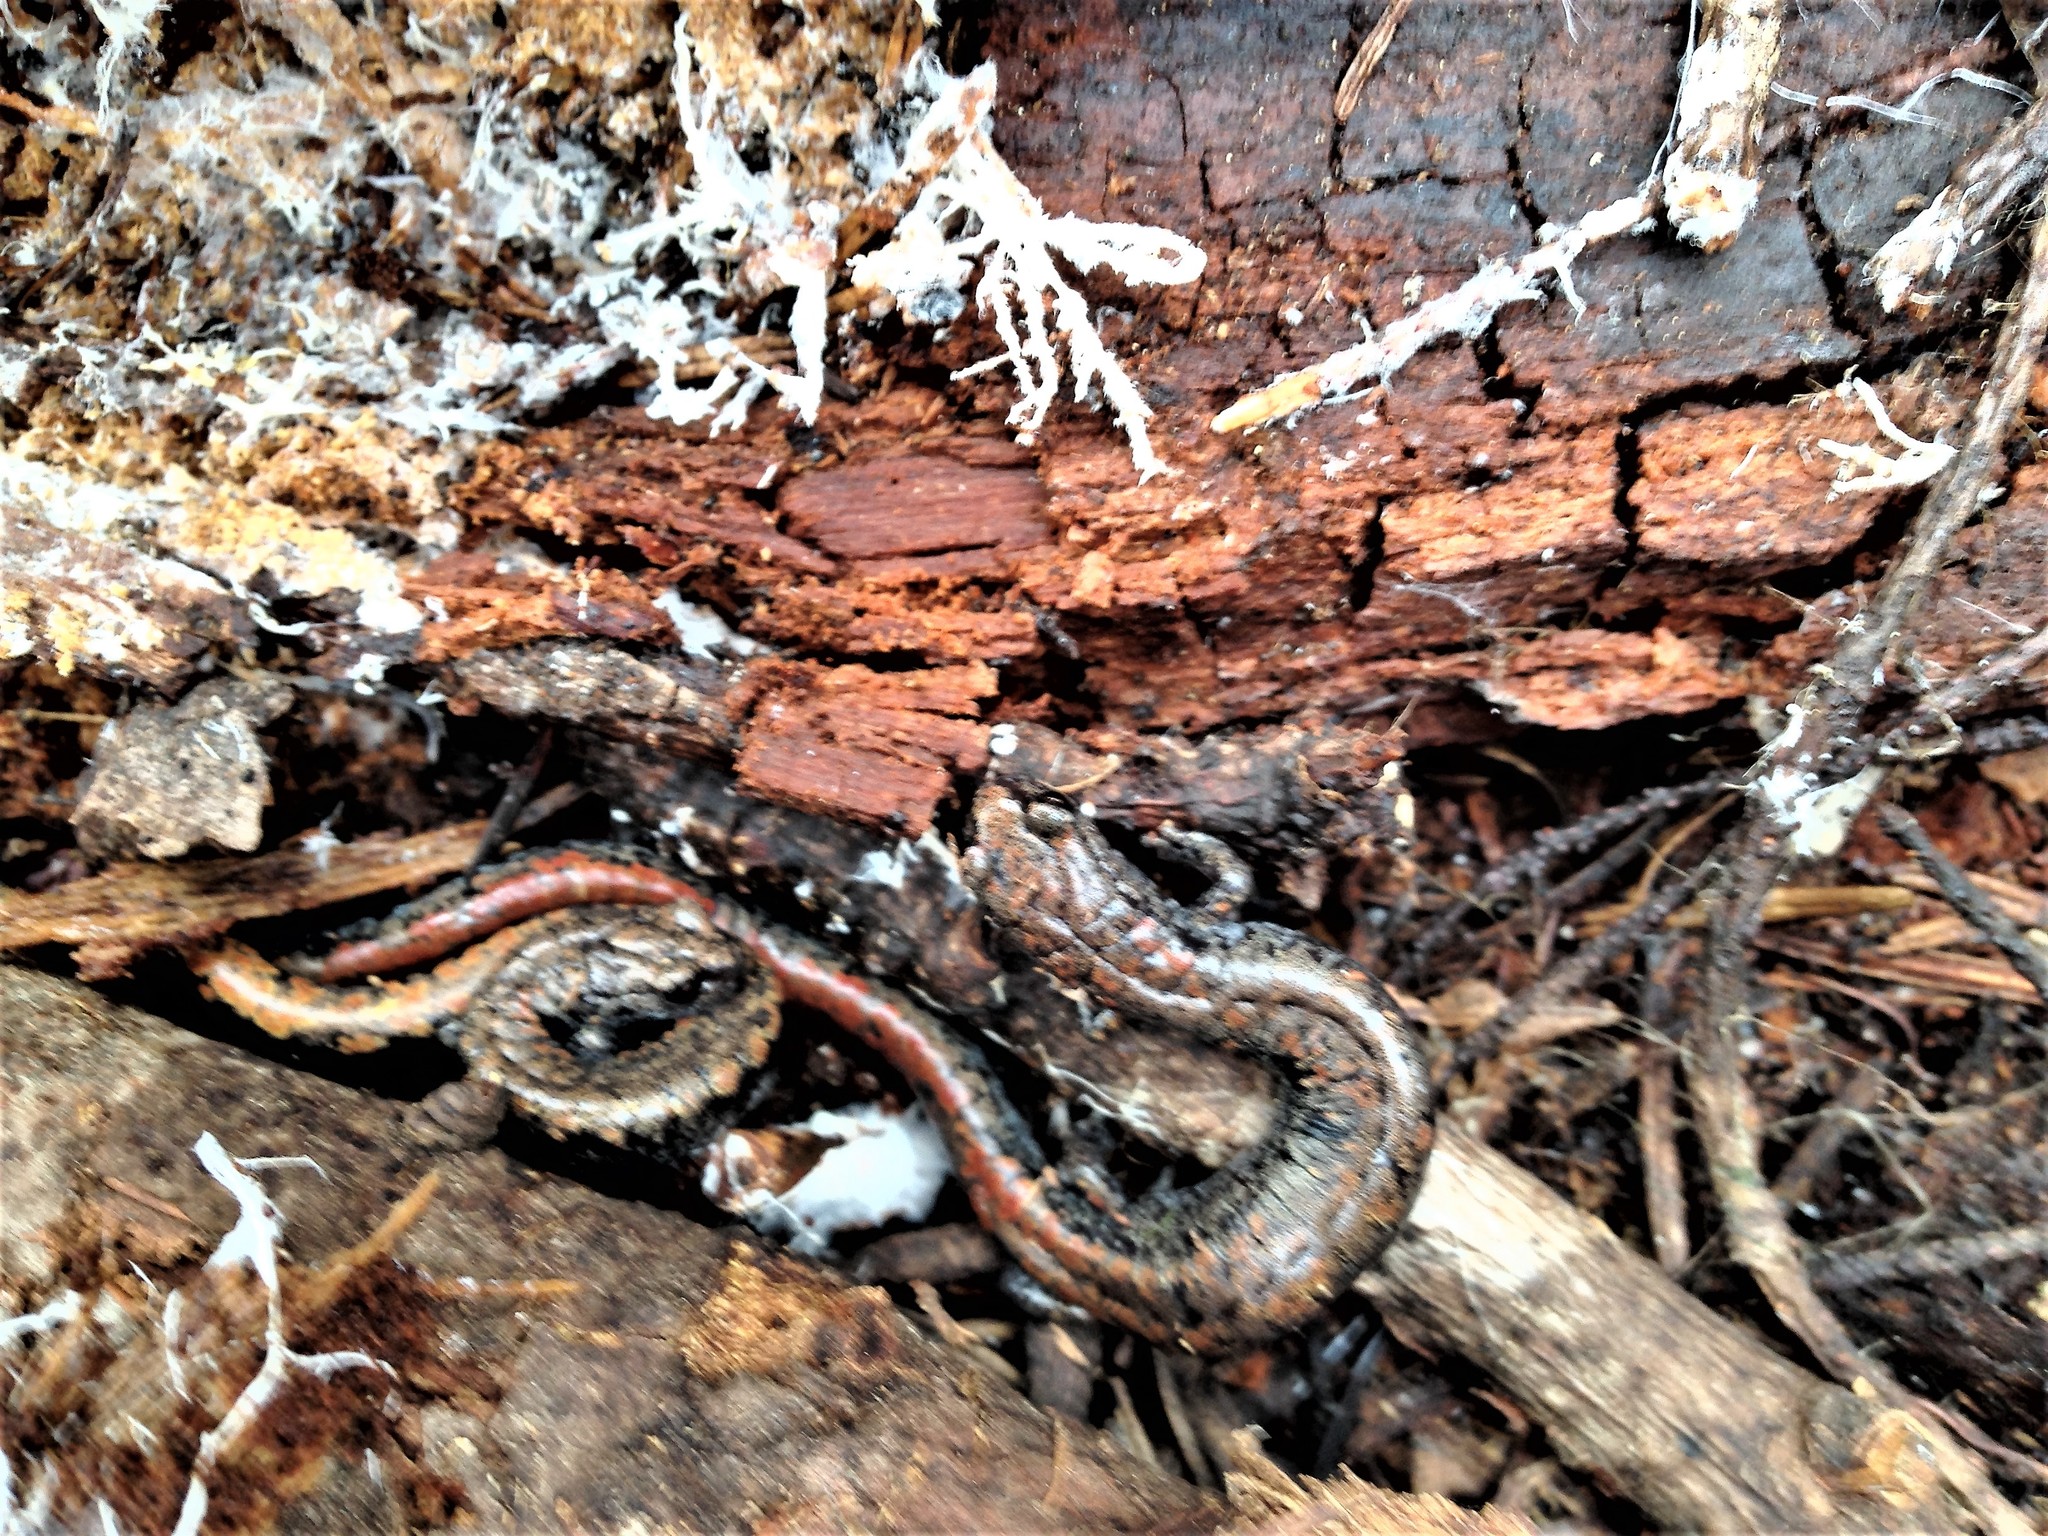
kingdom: Animalia
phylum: Chordata
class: Amphibia
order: Caudata
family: Plethodontidae
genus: Batrachoseps
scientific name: Batrachoseps wrighti
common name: Oregon slender salamander
